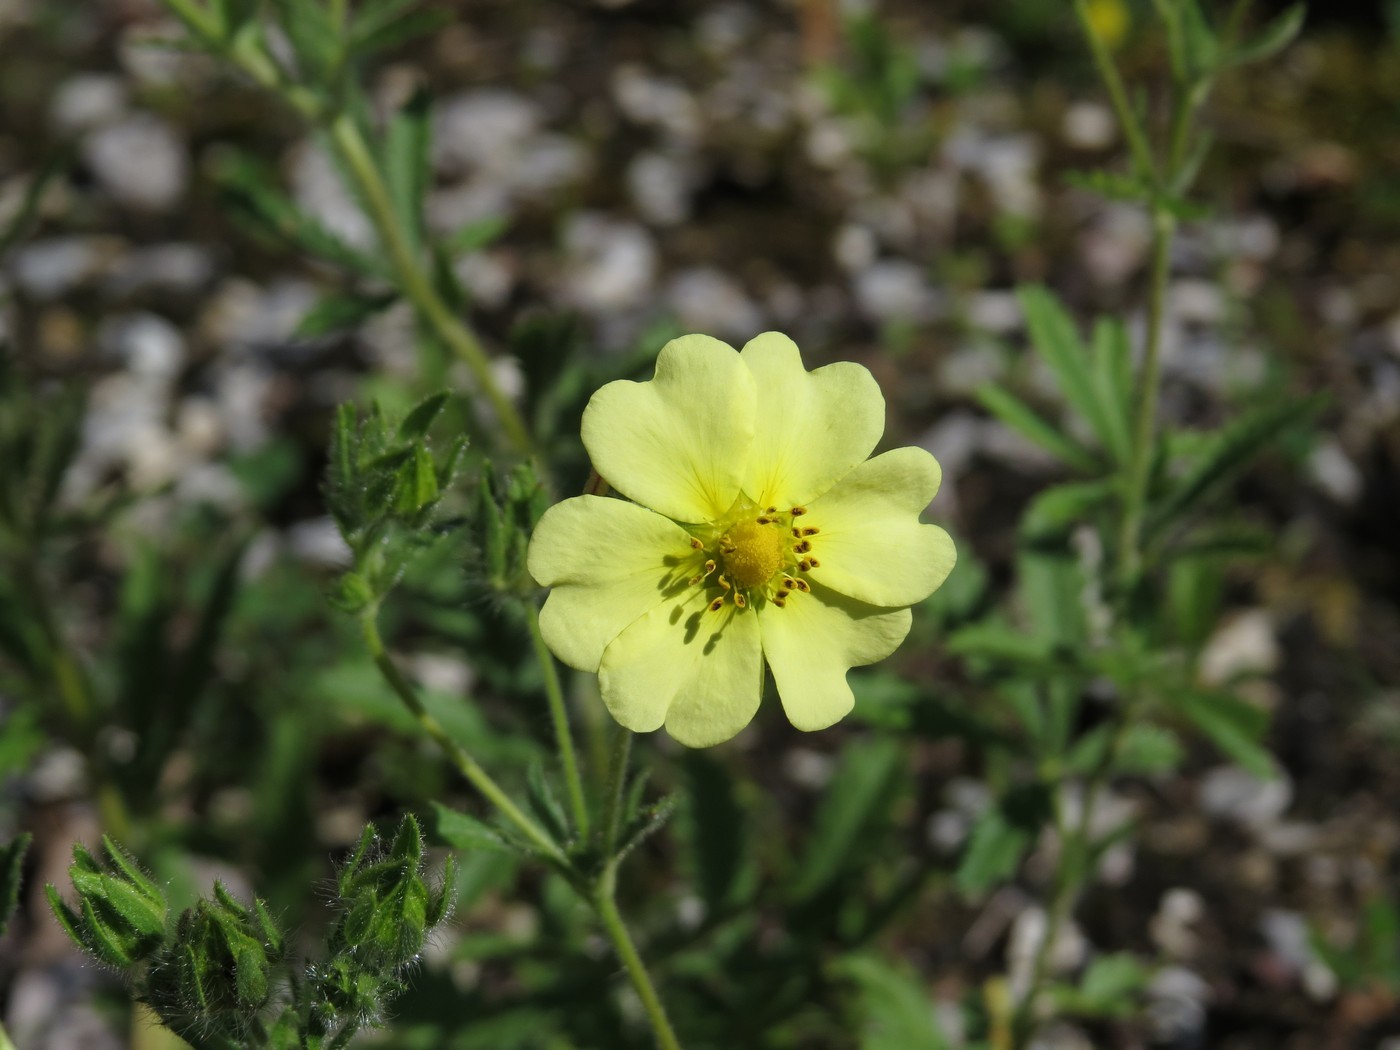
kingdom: Plantae
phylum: Tracheophyta
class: Magnoliopsida
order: Rosales
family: Rosaceae
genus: Potentilla
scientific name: Potentilla recta
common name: Sulphur cinquefoil
